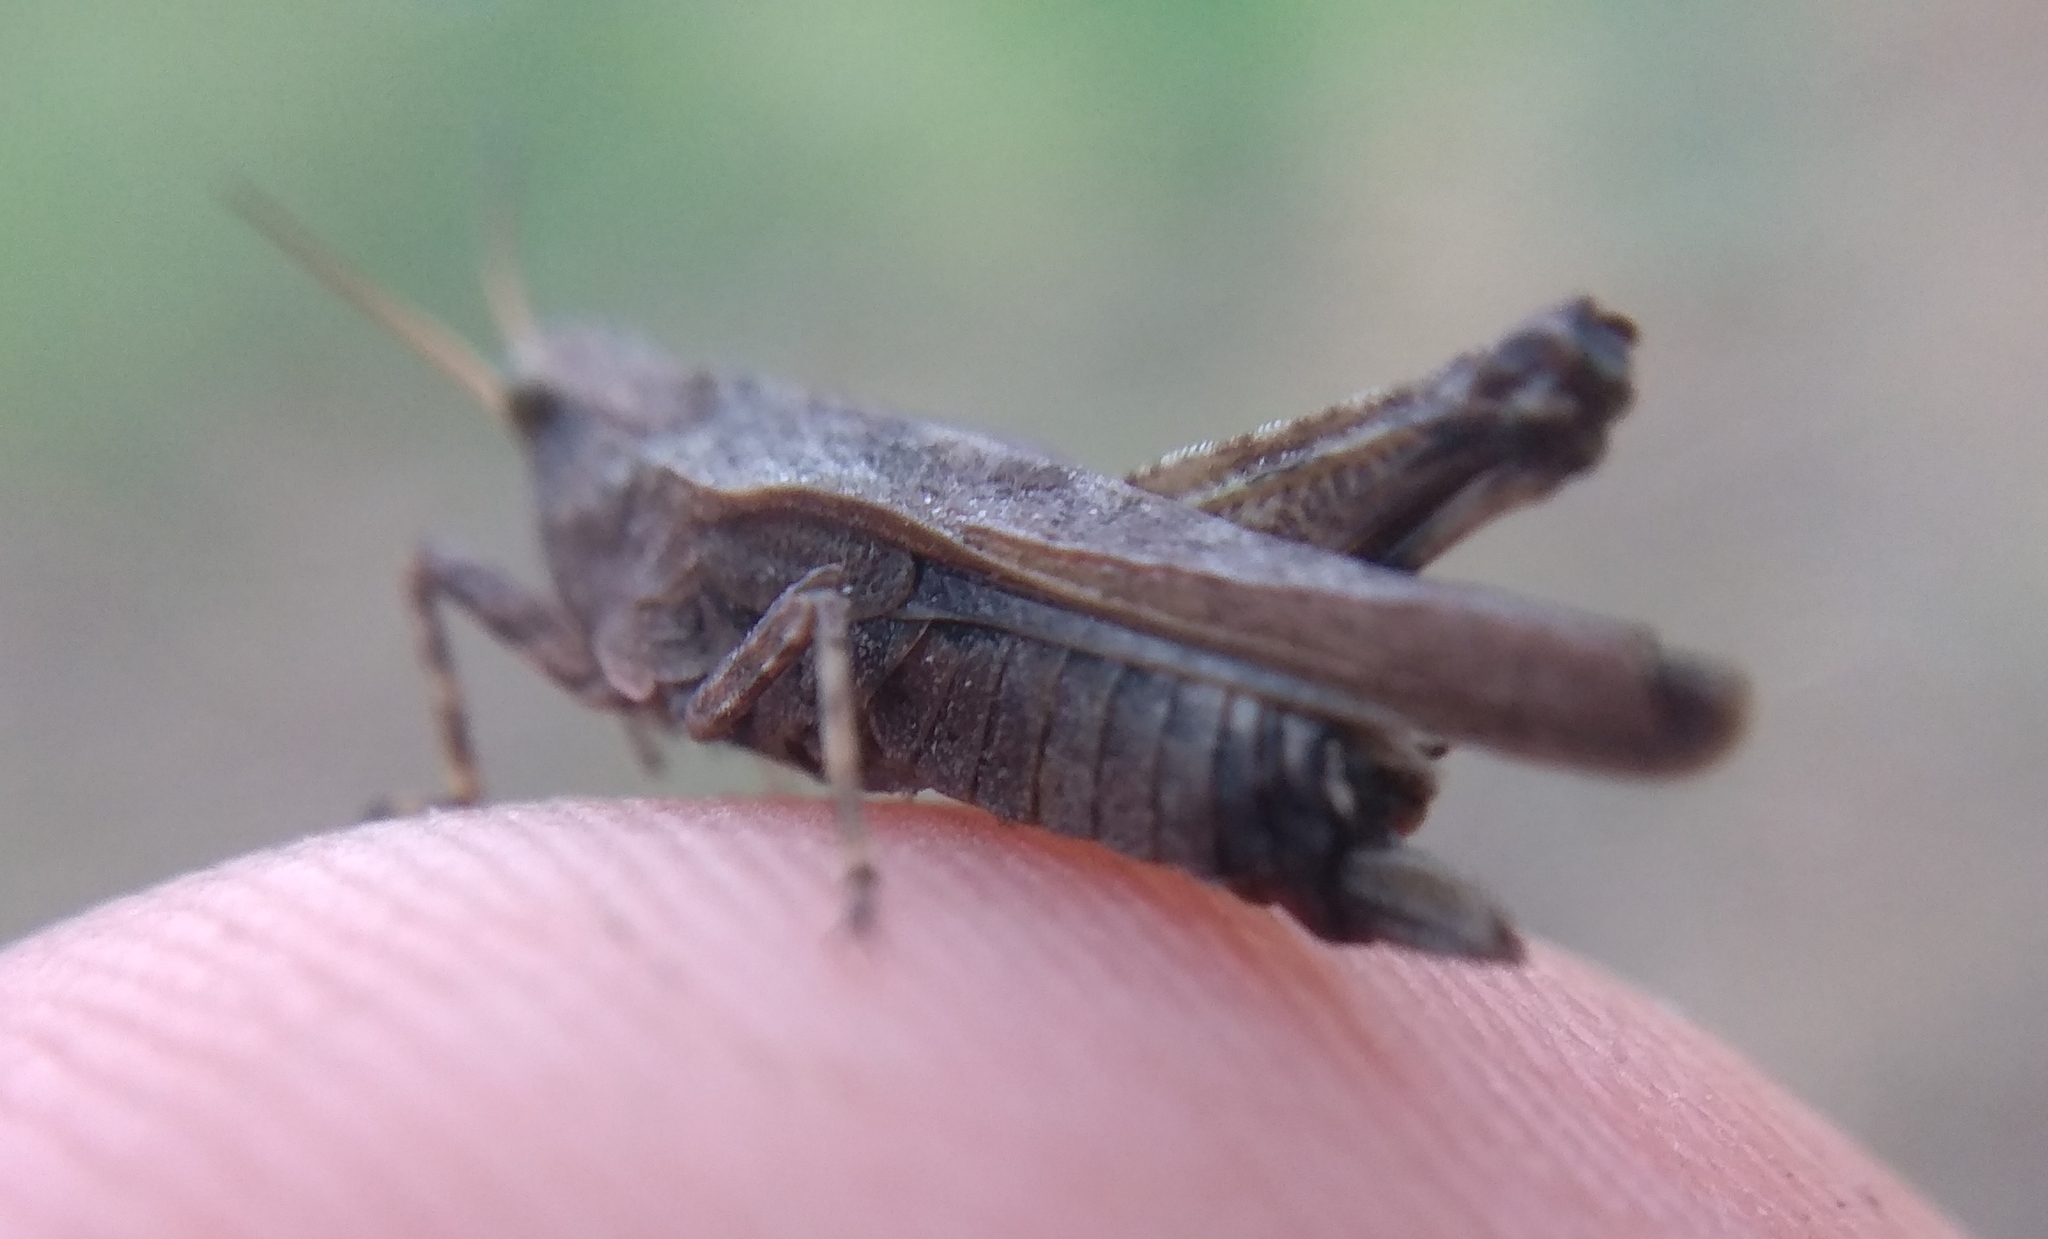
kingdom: Animalia
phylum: Arthropoda
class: Insecta
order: Orthoptera
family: Tetrigidae
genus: Tetrix
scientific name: Tetrix subulata
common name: Slender ground-hopper
